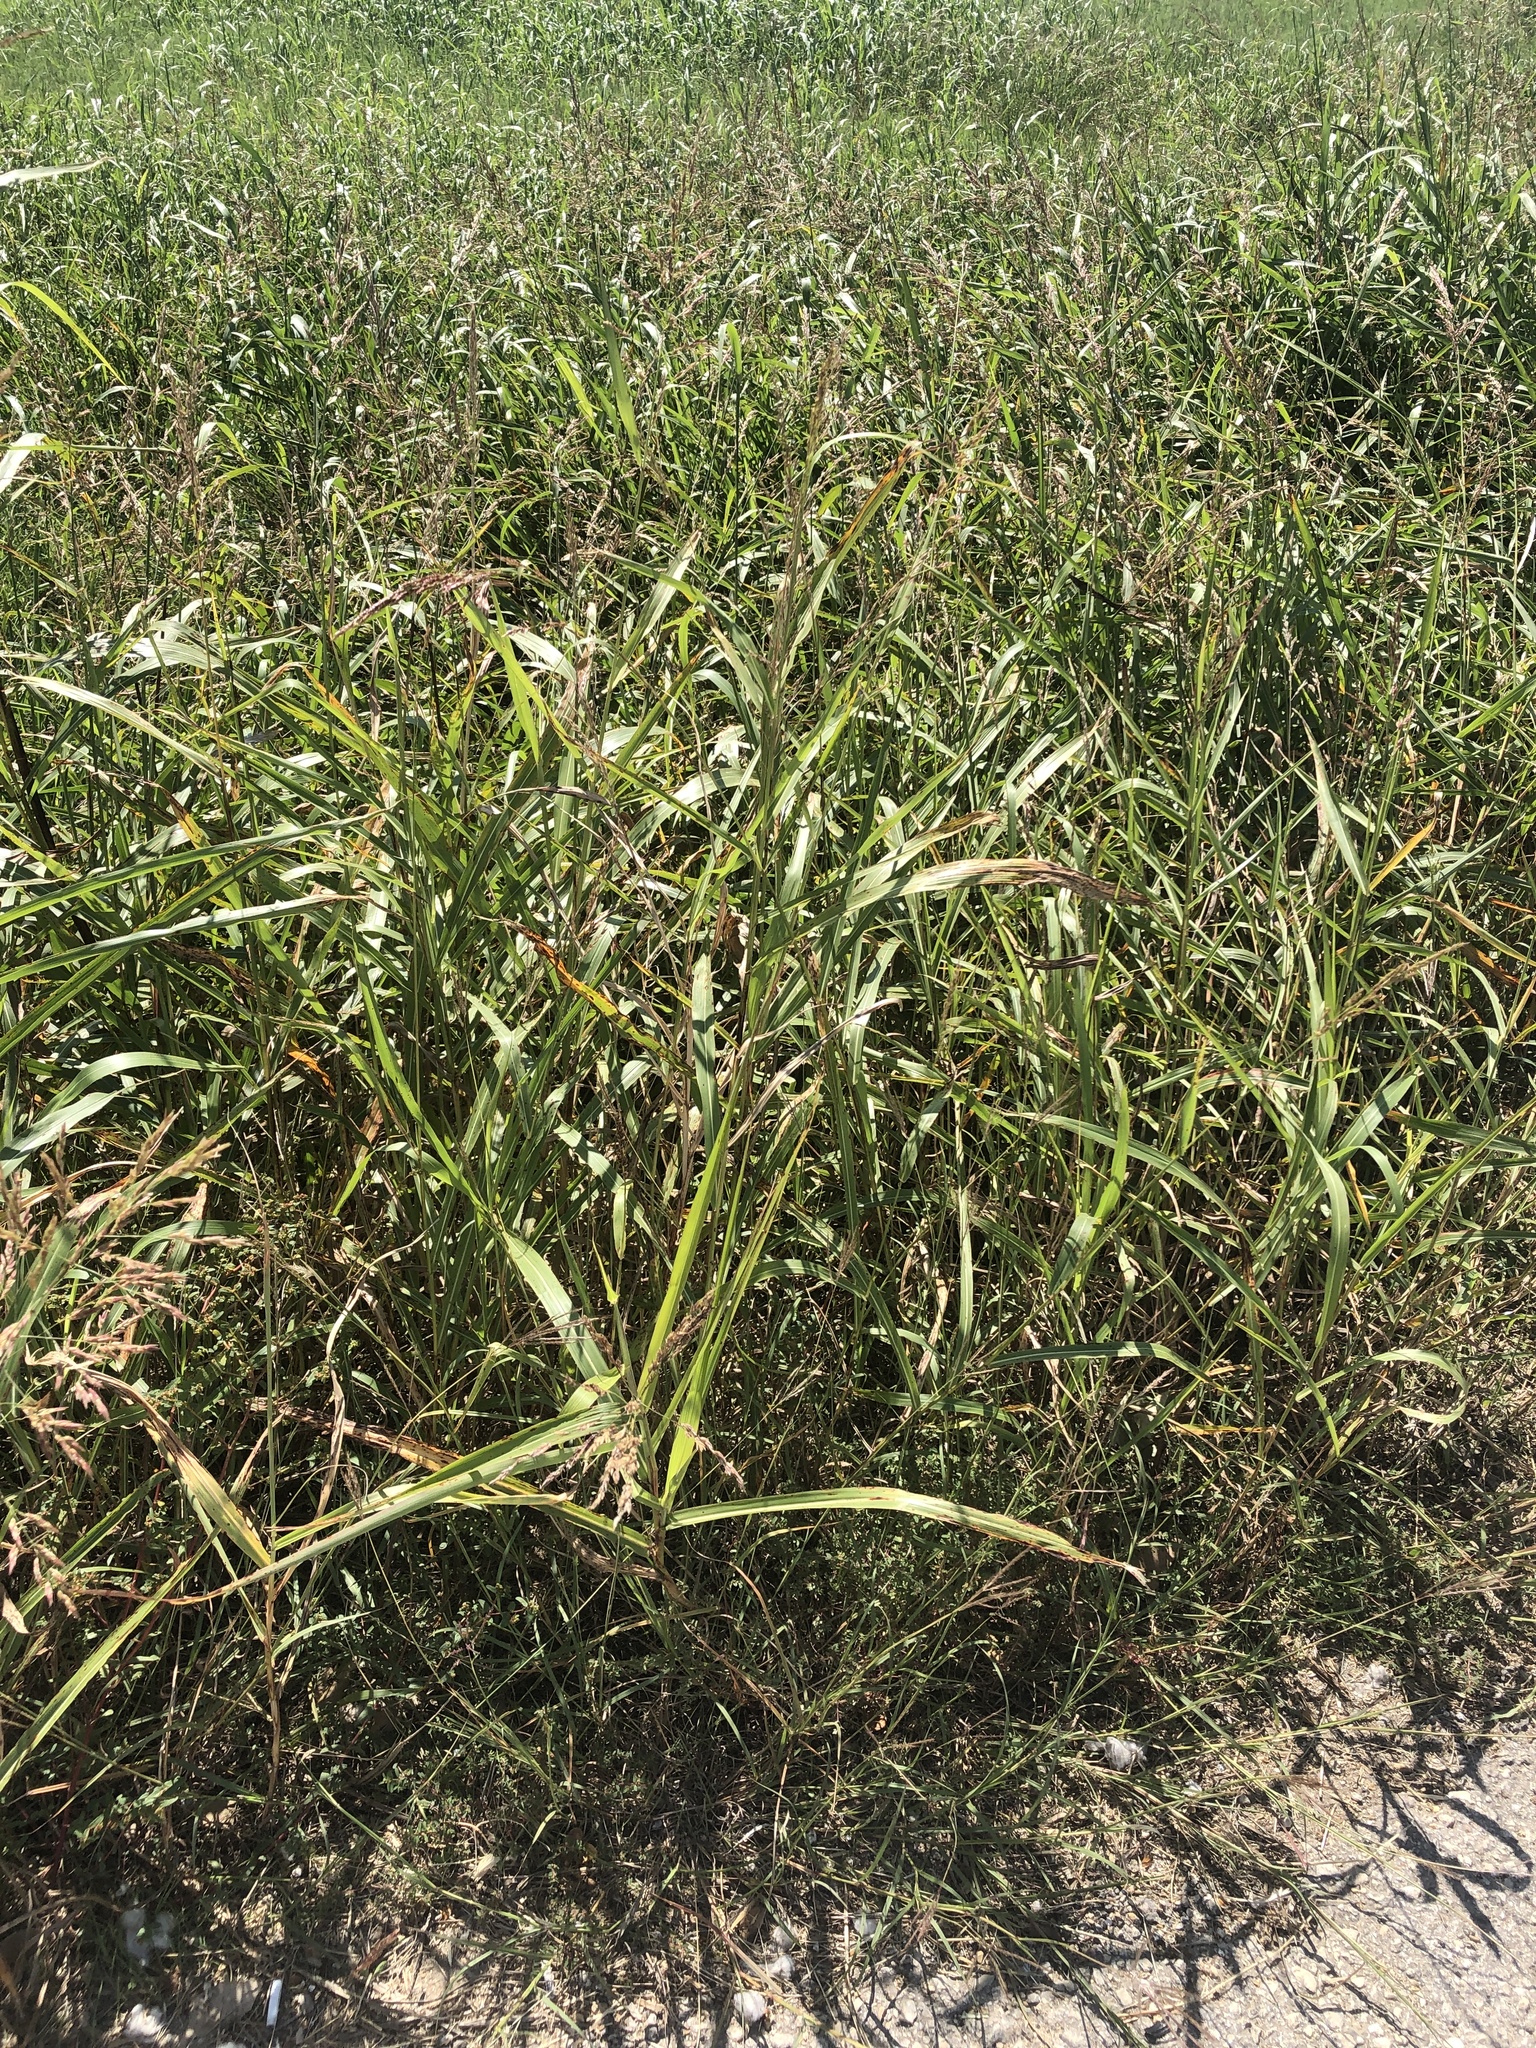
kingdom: Plantae
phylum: Tracheophyta
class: Liliopsida
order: Poales
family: Poaceae
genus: Sorghum
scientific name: Sorghum halepense
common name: Johnson-grass
